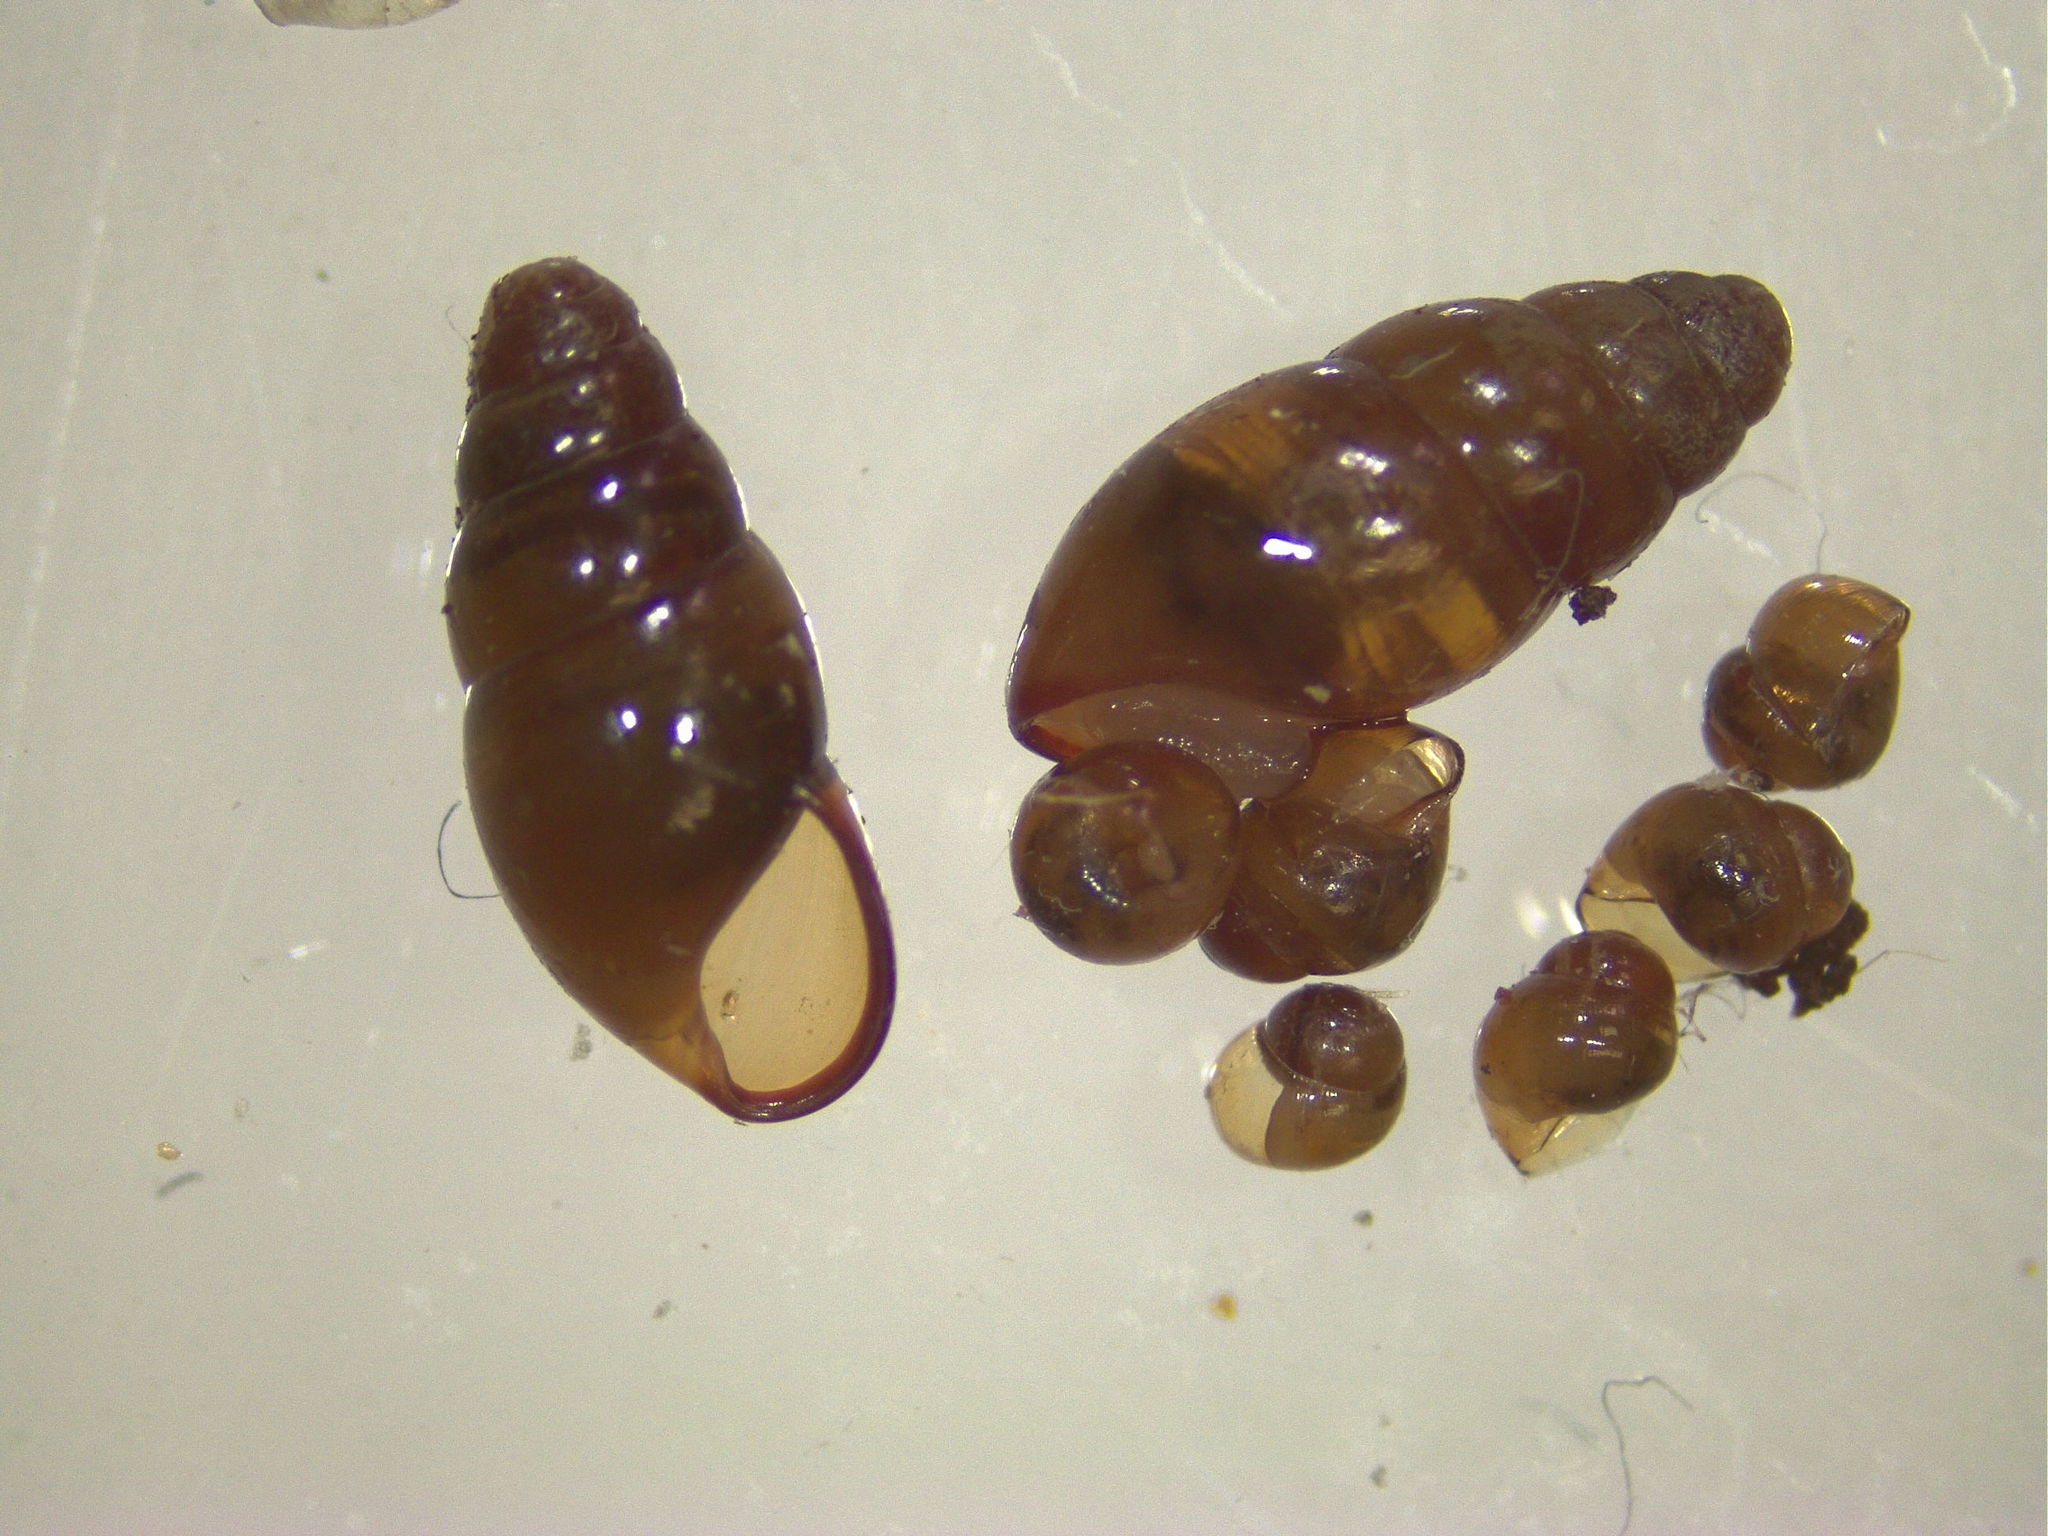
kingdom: Animalia
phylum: Mollusca
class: Gastropoda
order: Stylommatophora
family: Cochlicopidae
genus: Cochlicopa
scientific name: Cochlicopa lubrica
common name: Glossy pillar snail
